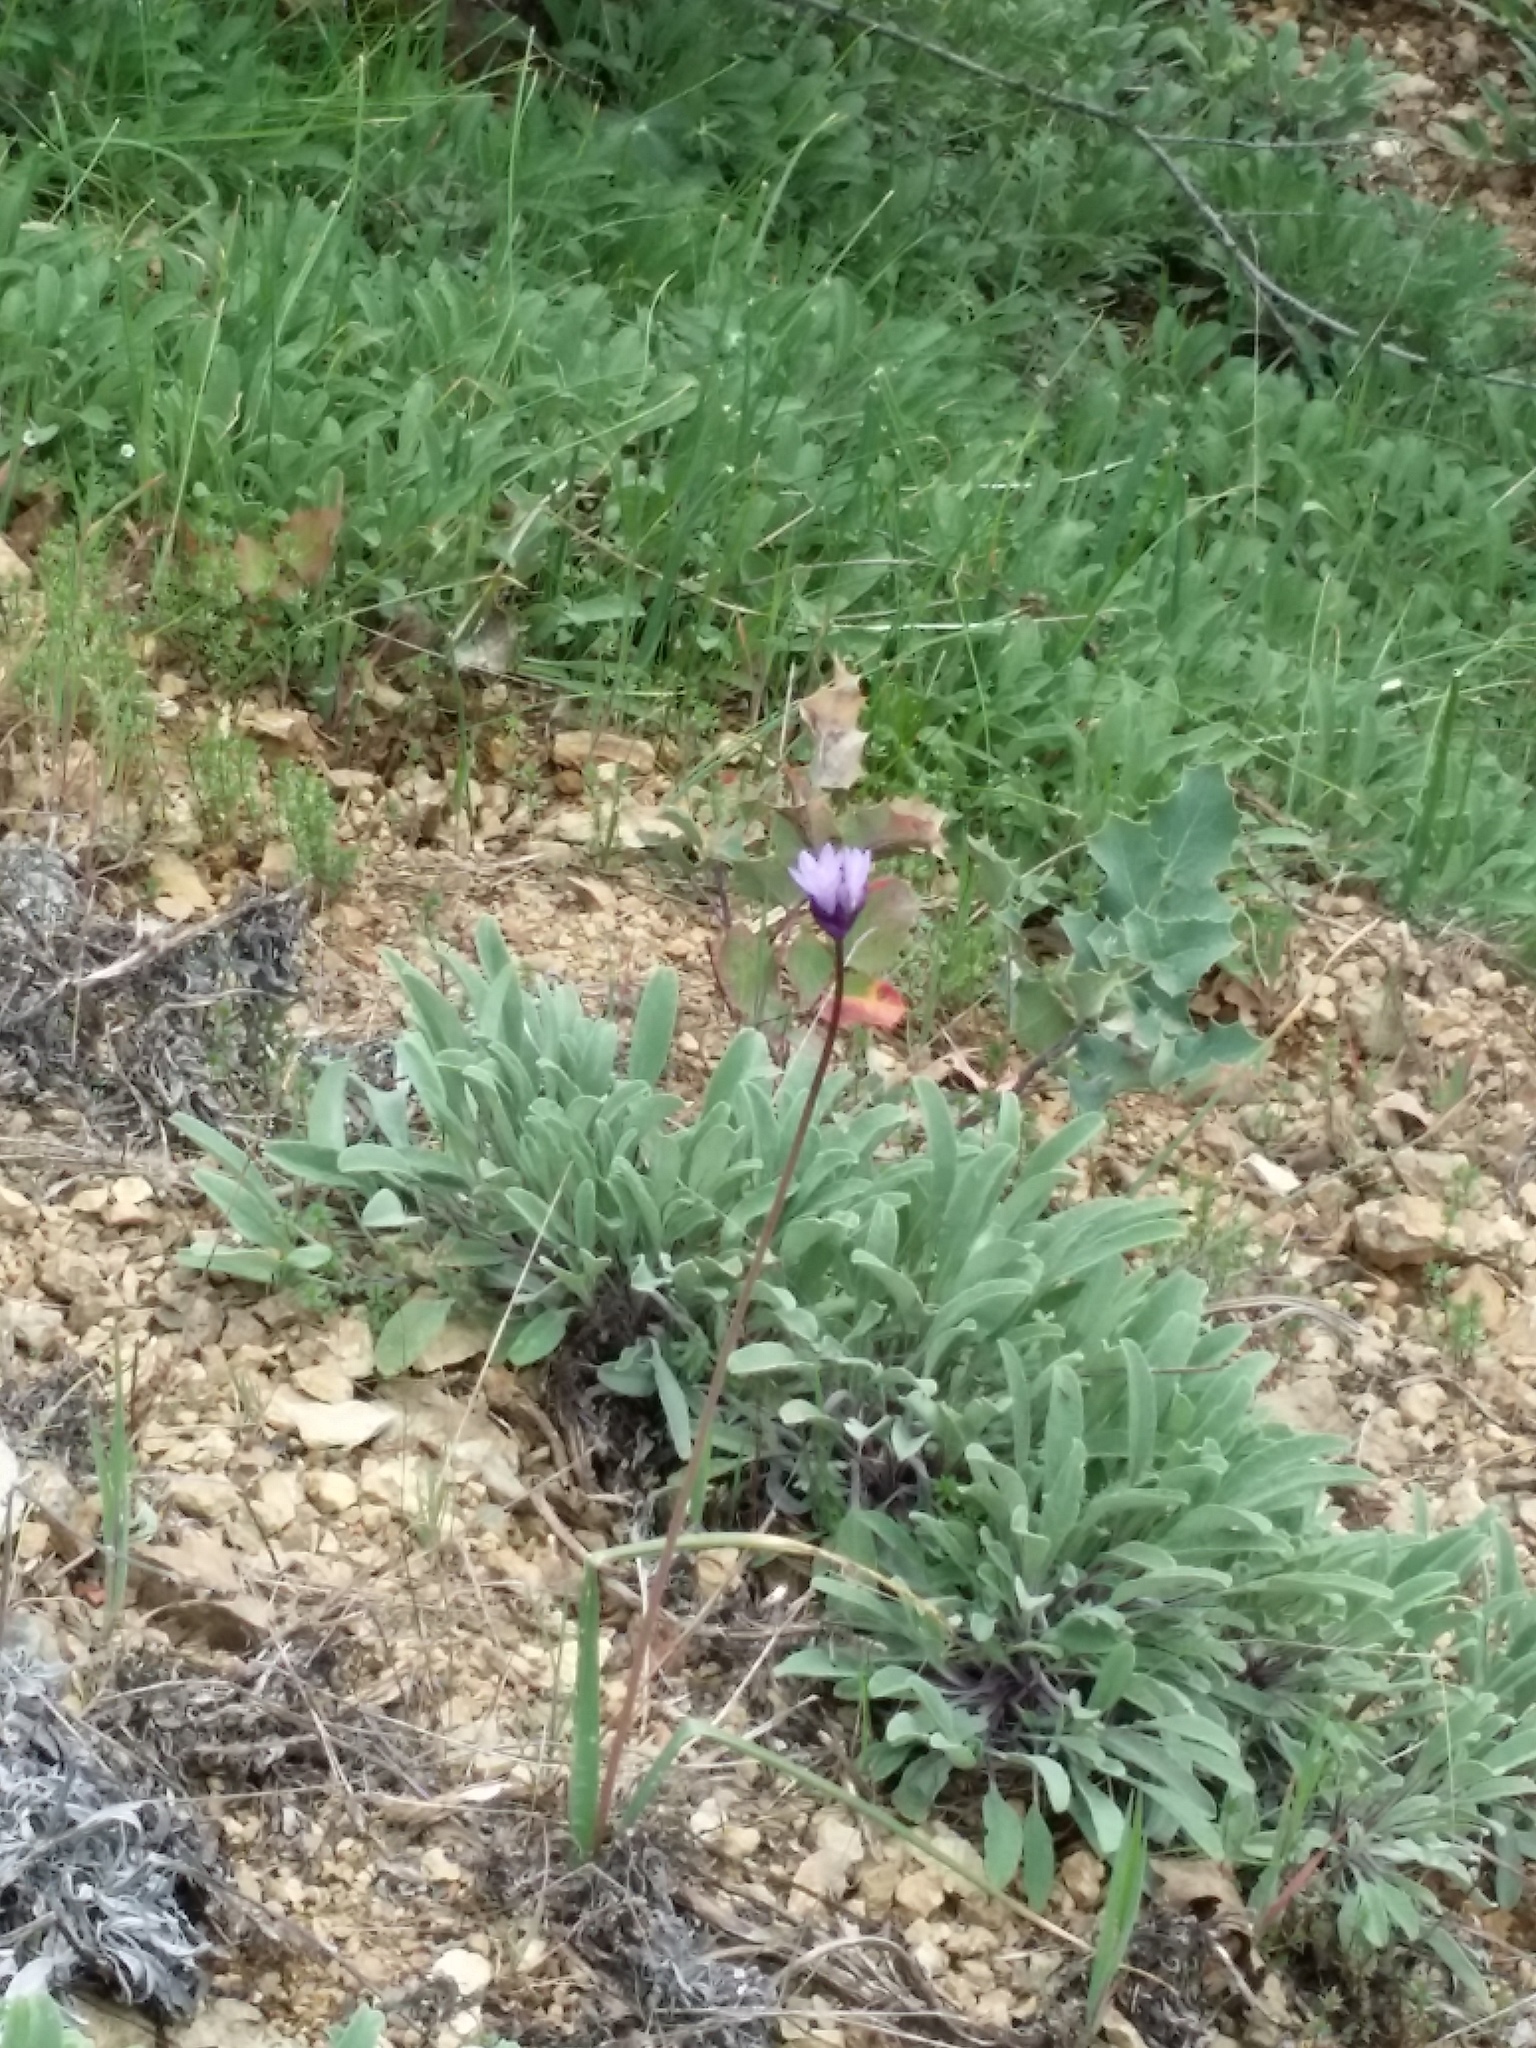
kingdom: Plantae
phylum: Tracheophyta
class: Liliopsida
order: Asparagales
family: Asparagaceae
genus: Dipterostemon
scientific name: Dipterostemon capitatus
